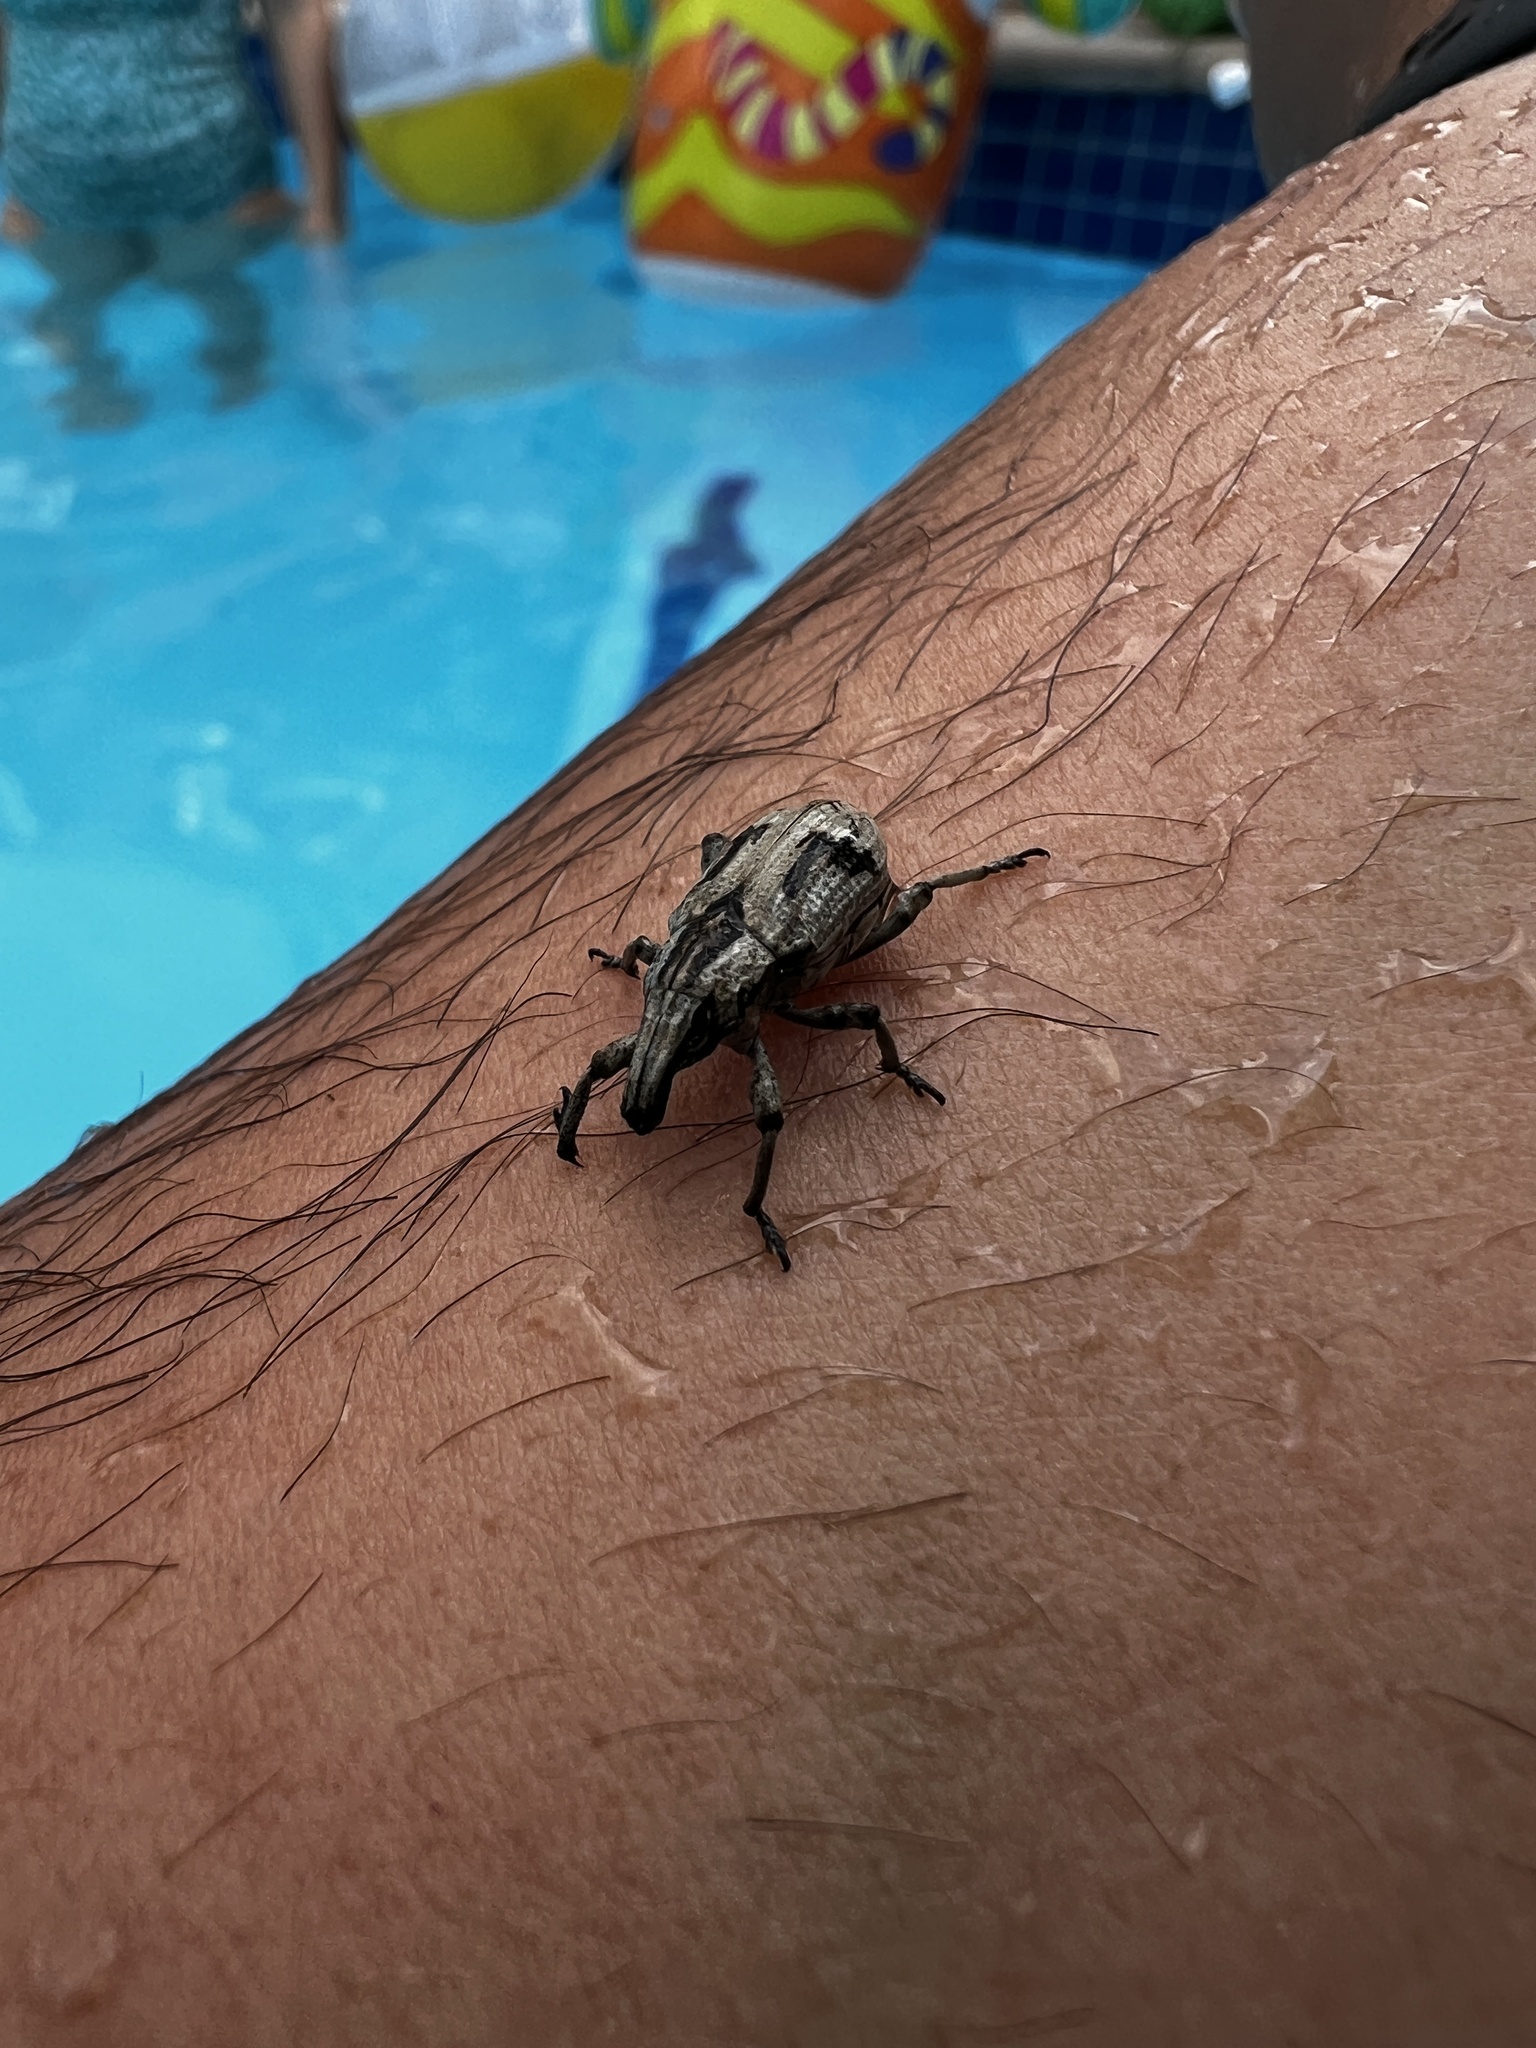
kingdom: Animalia
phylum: Arthropoda
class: Insecta
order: Coleoptera
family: Curculionidae
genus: Tetragonothorax
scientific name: Tetragonothorax
